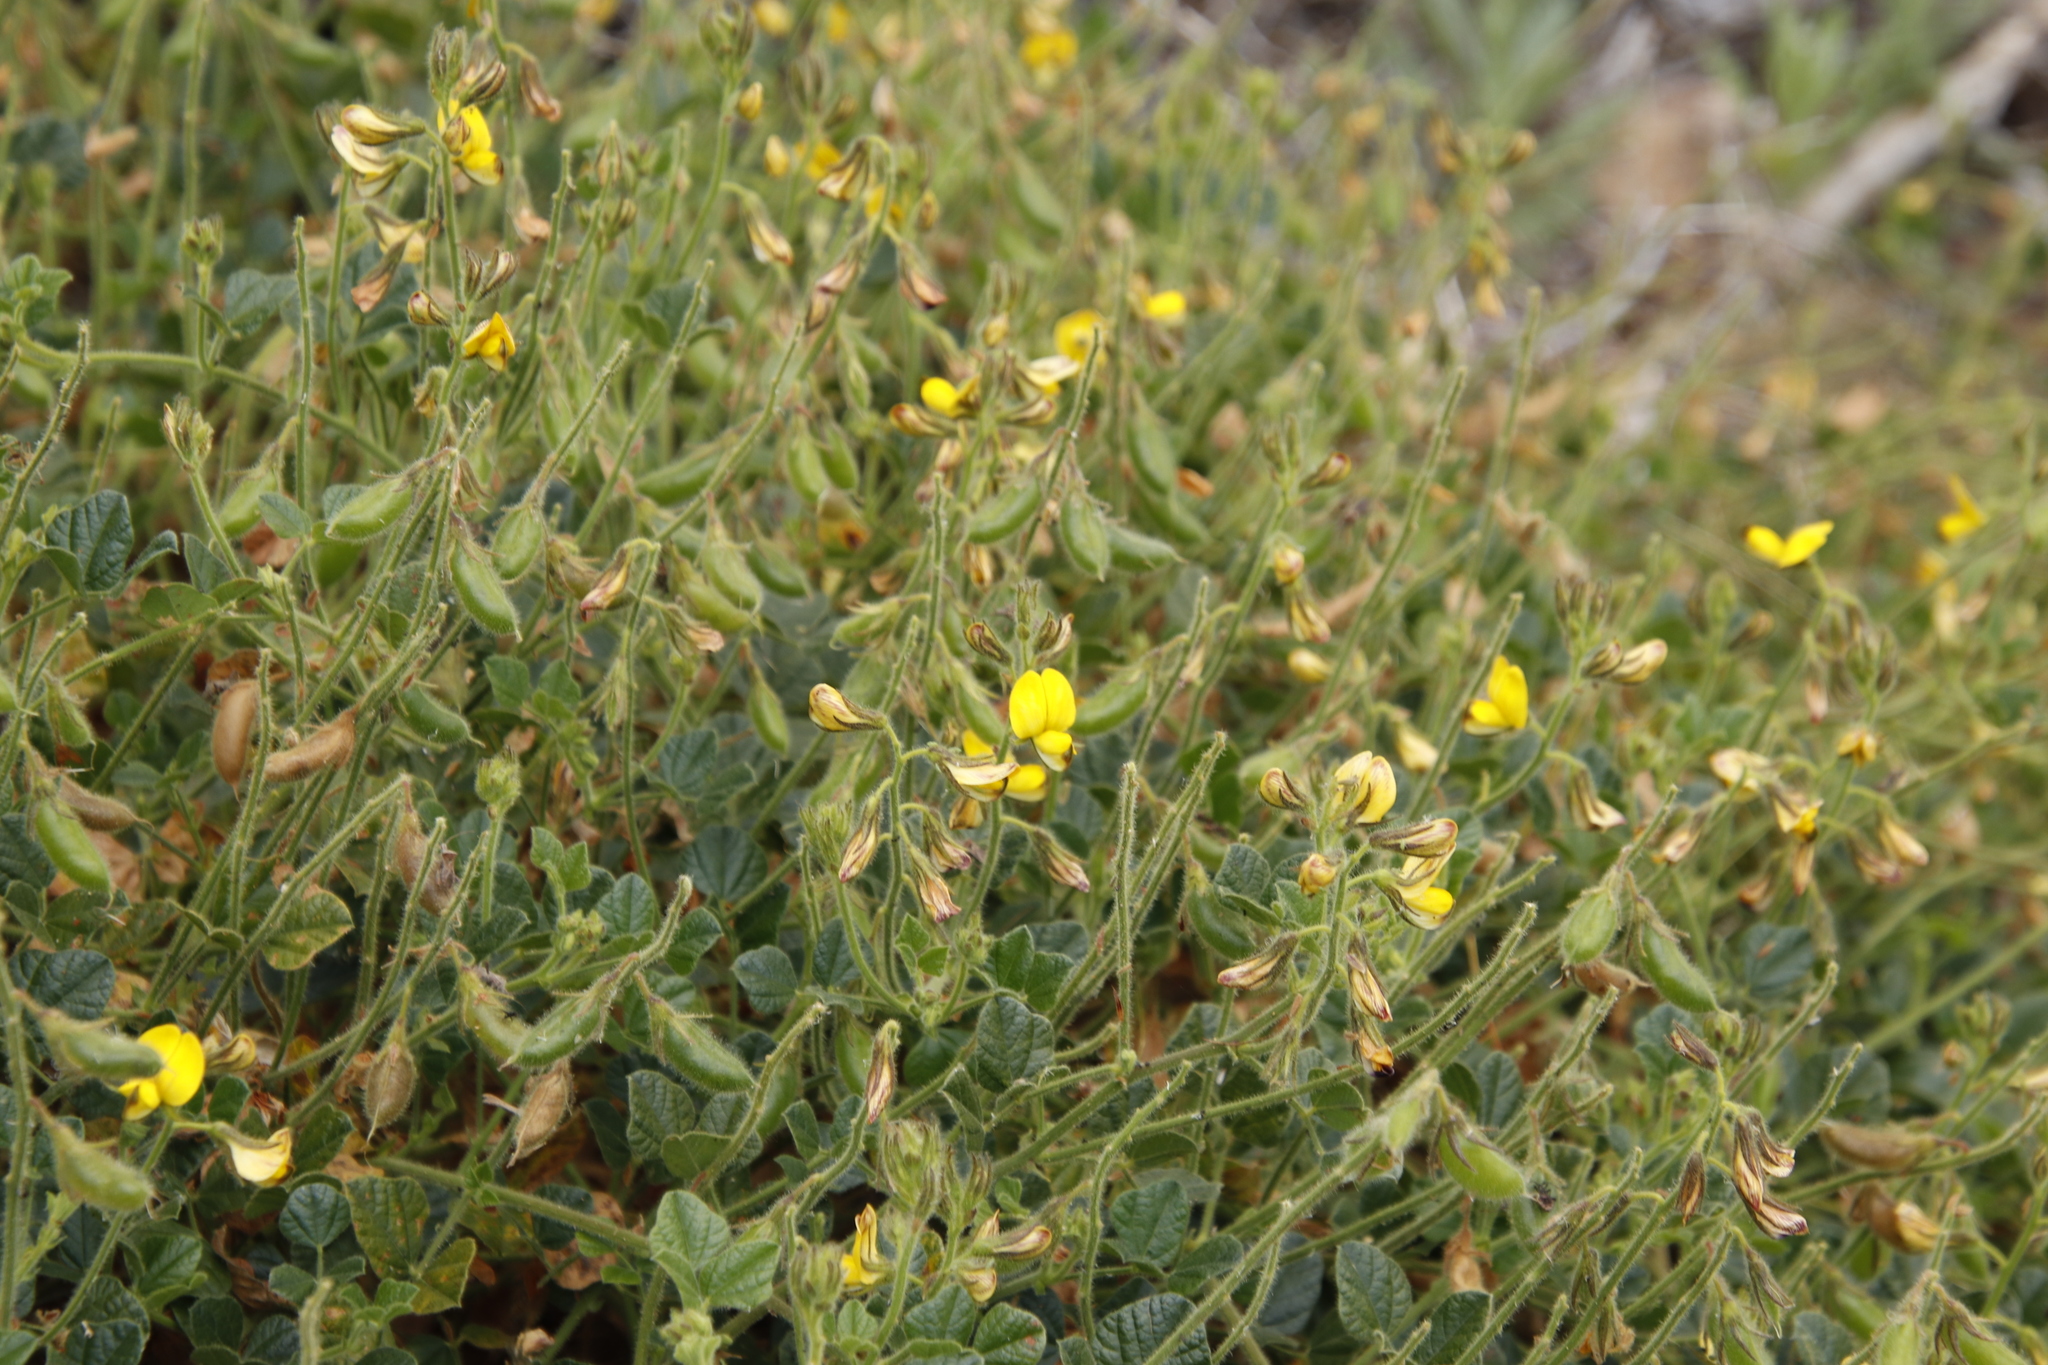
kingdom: Plantae
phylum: Tracheophyta
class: Magnoliopsida
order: Fabales
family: Fabaceae
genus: Bolusafra
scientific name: Bolusafra bituminosa
